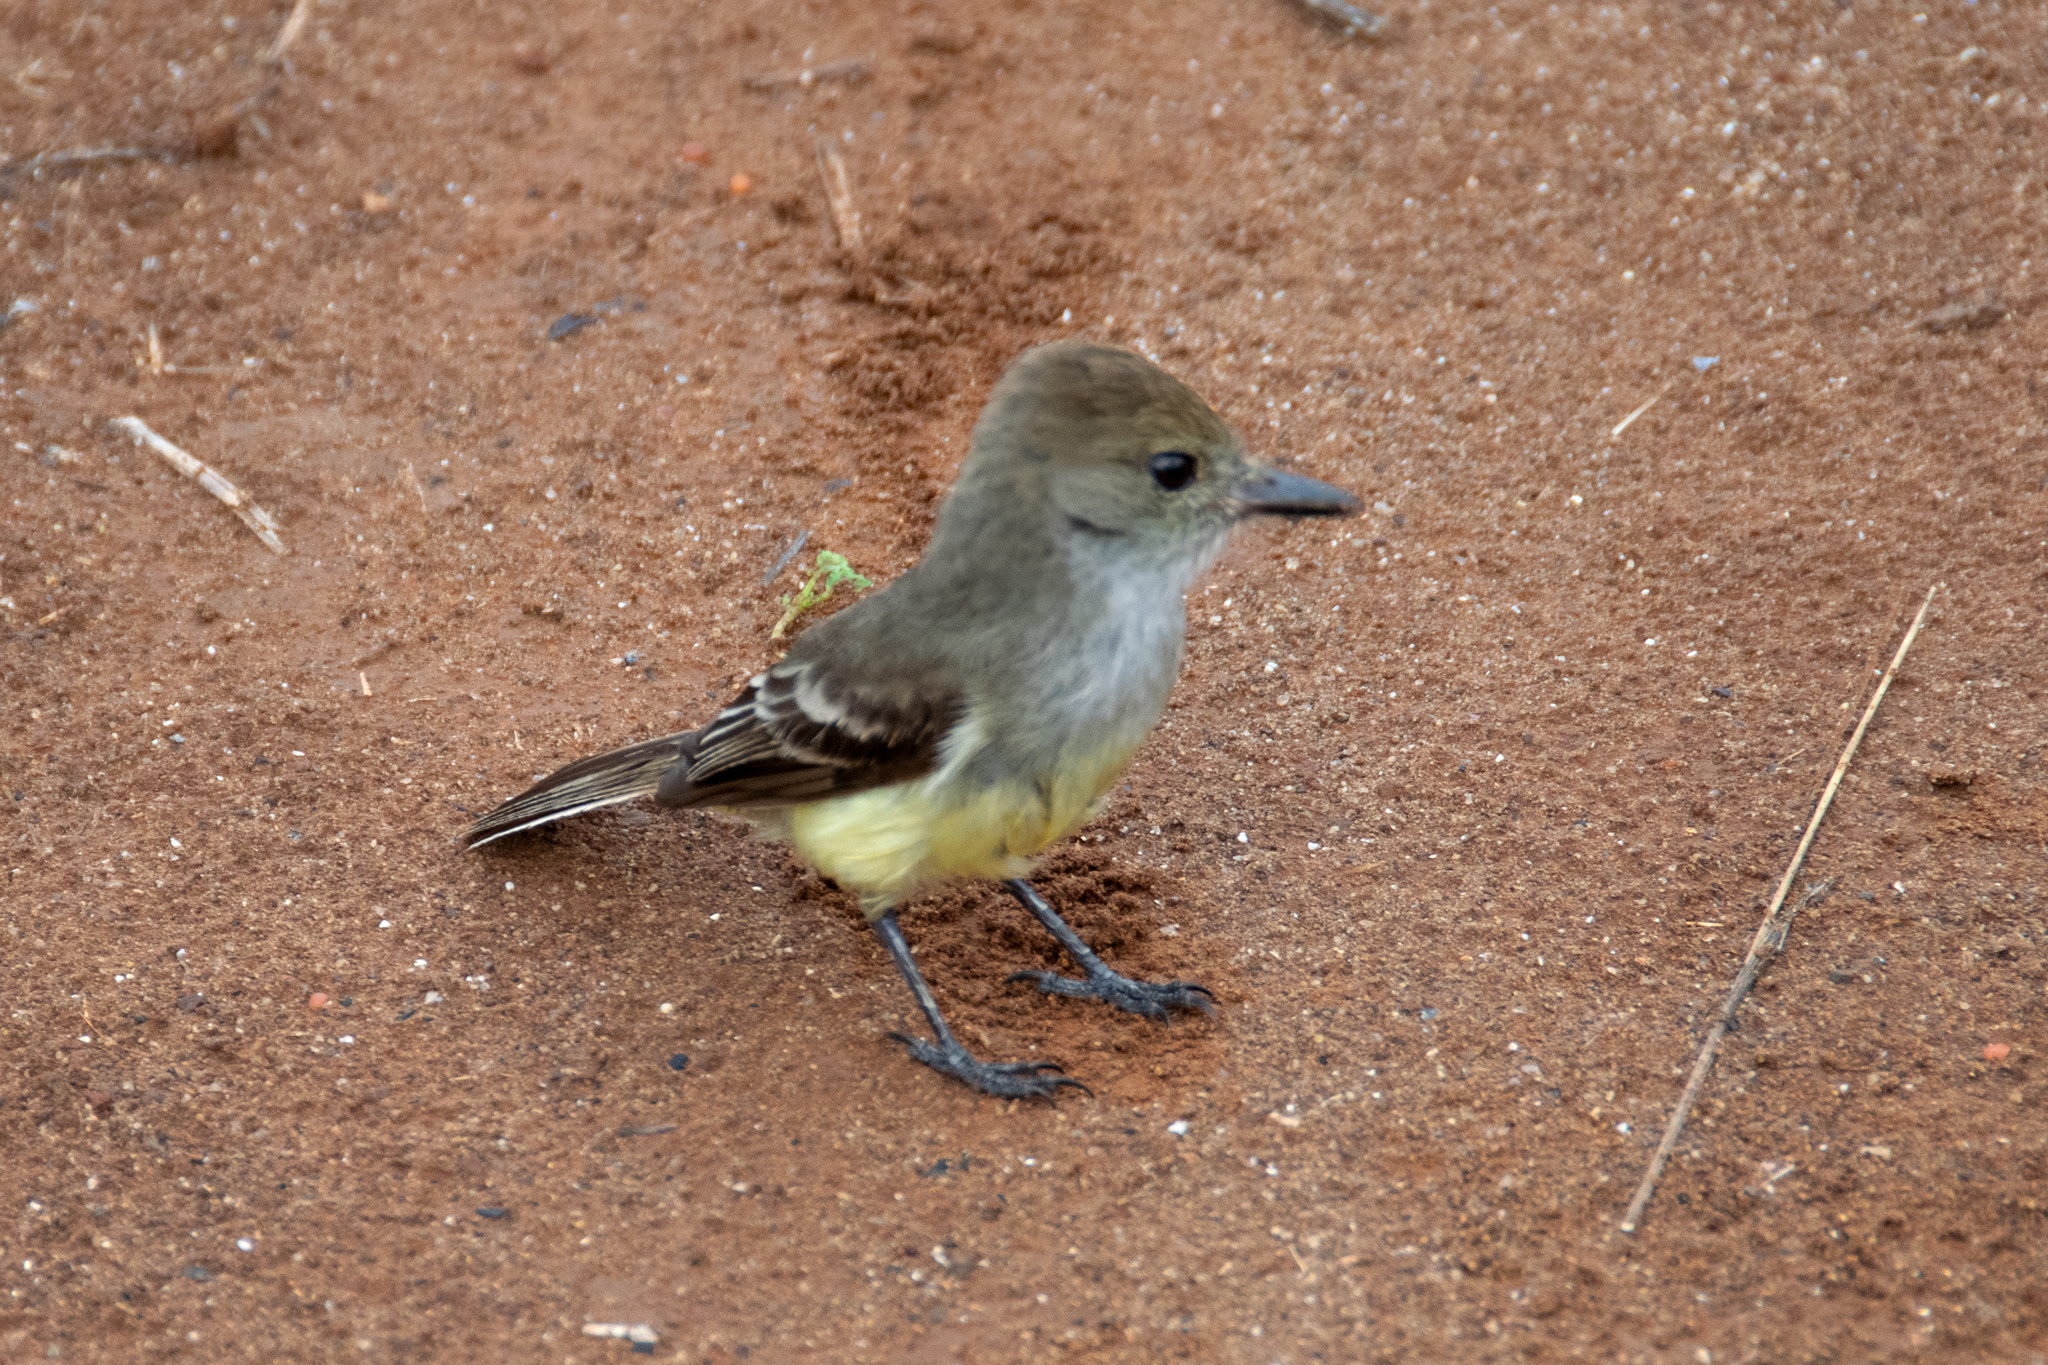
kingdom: Animalia
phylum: Chordata
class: Aves
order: Passeriformes
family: Tyrannidae
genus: Myiarchus
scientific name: Myiarchus magnirostris
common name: Galapagos flycatcher
